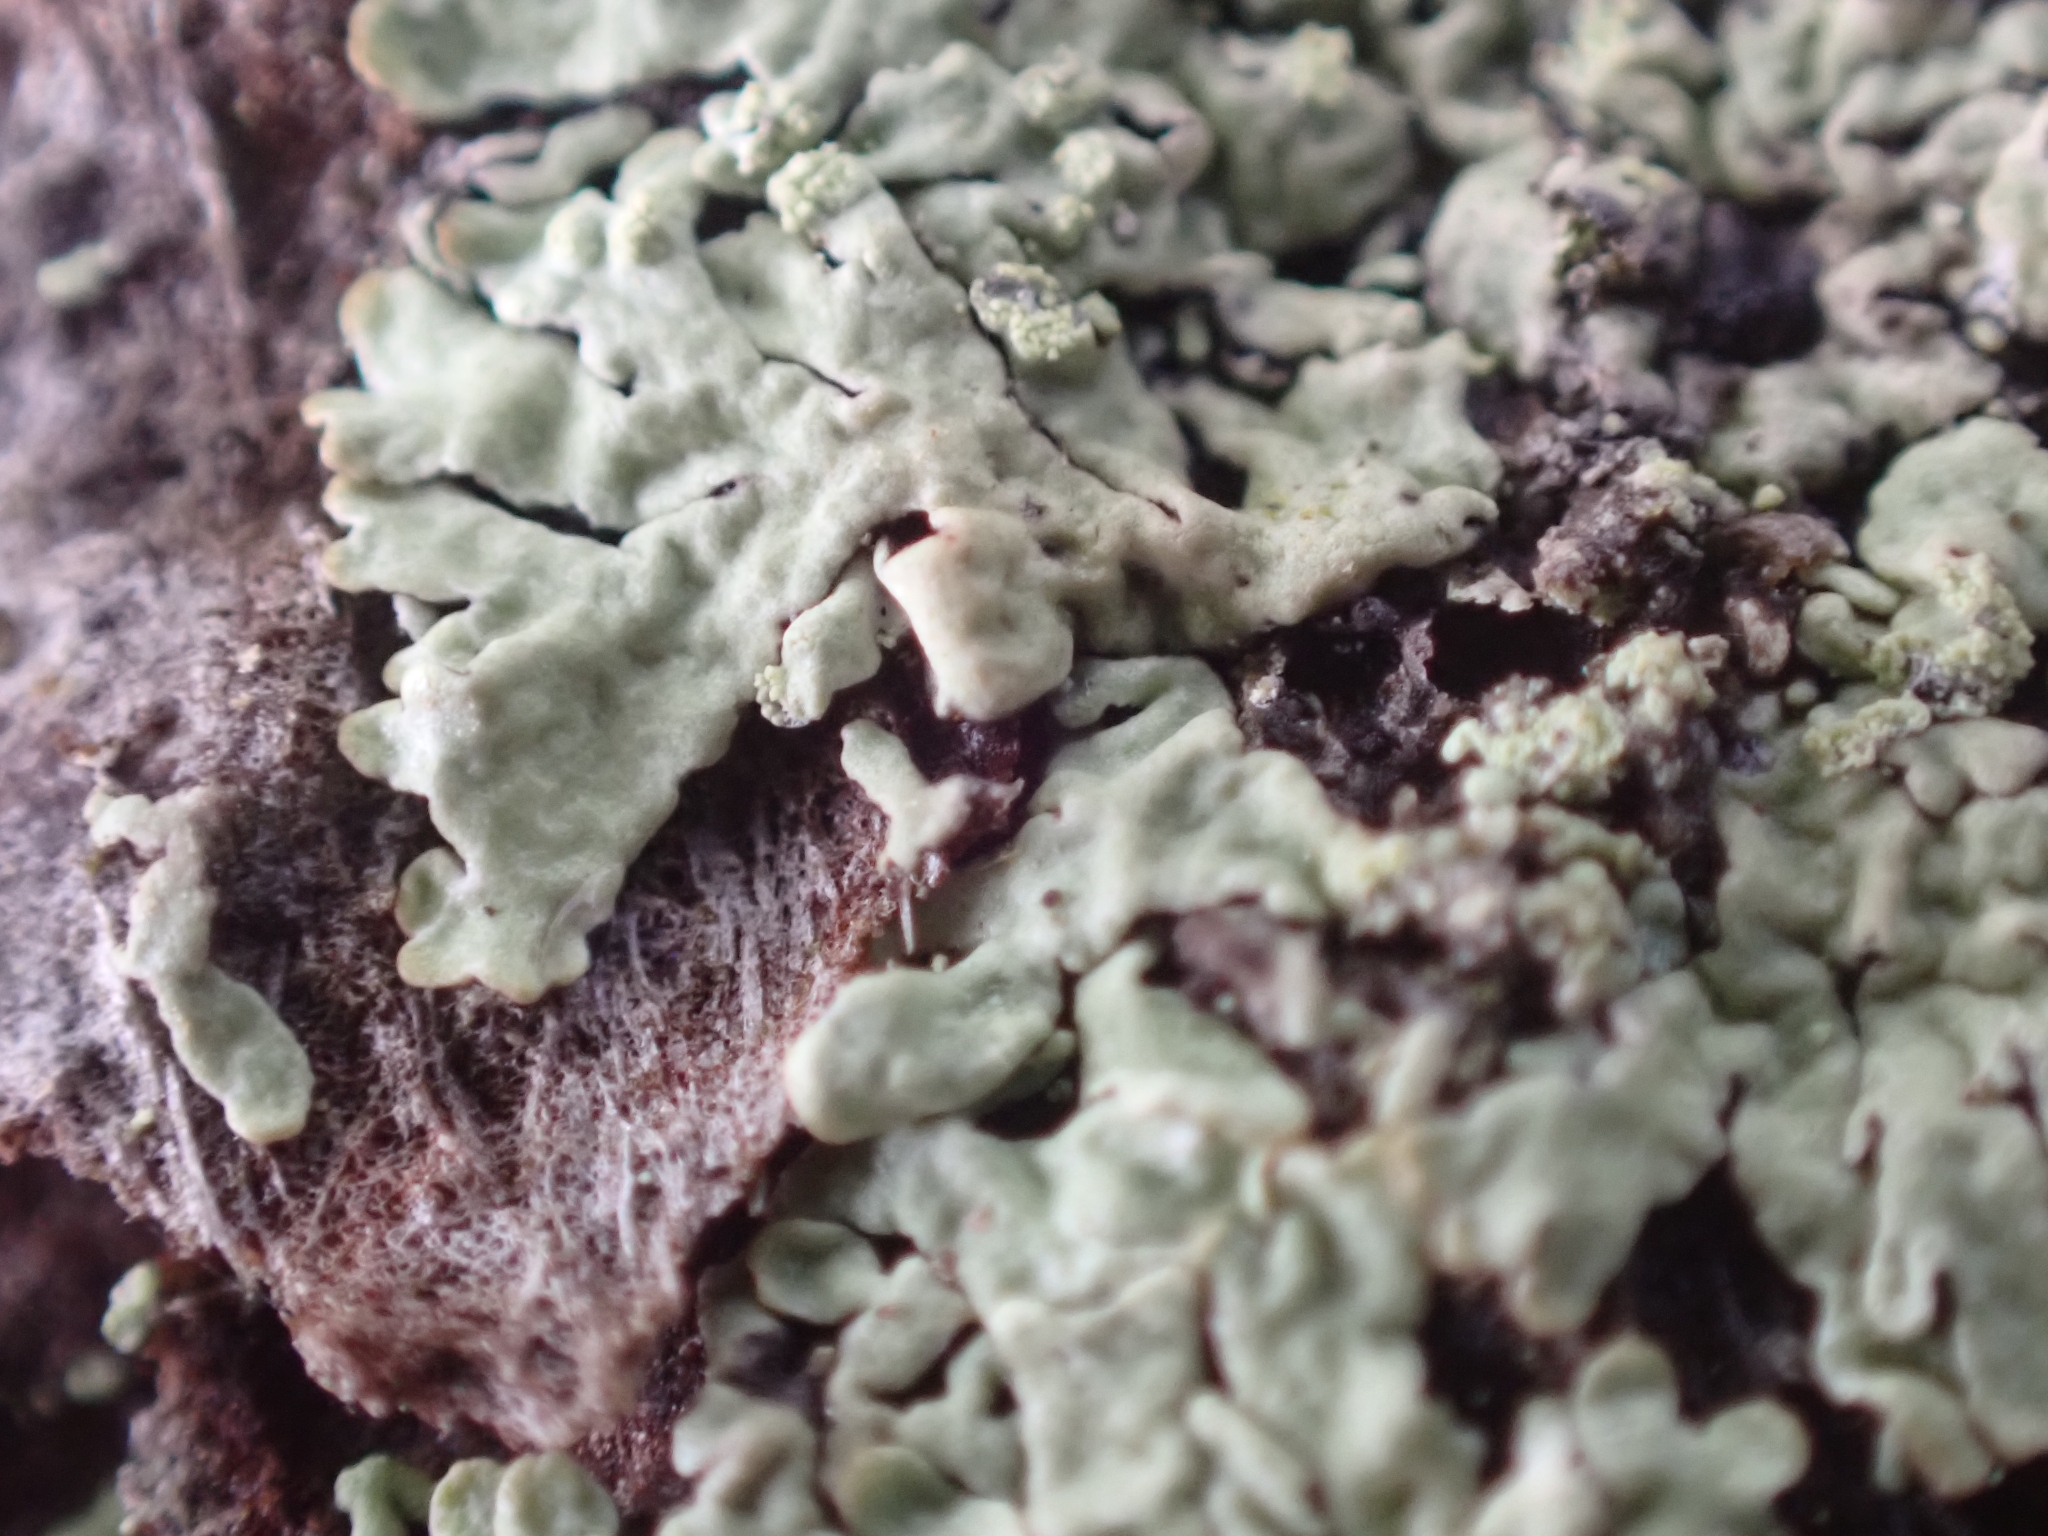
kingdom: Fungi
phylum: Ascomycota
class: Lecanoromycetes
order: Lecanorales
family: Parmeliaceae
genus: Parmeliopsis
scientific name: Parmeliopsis ambigua
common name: Green starburst lichen
